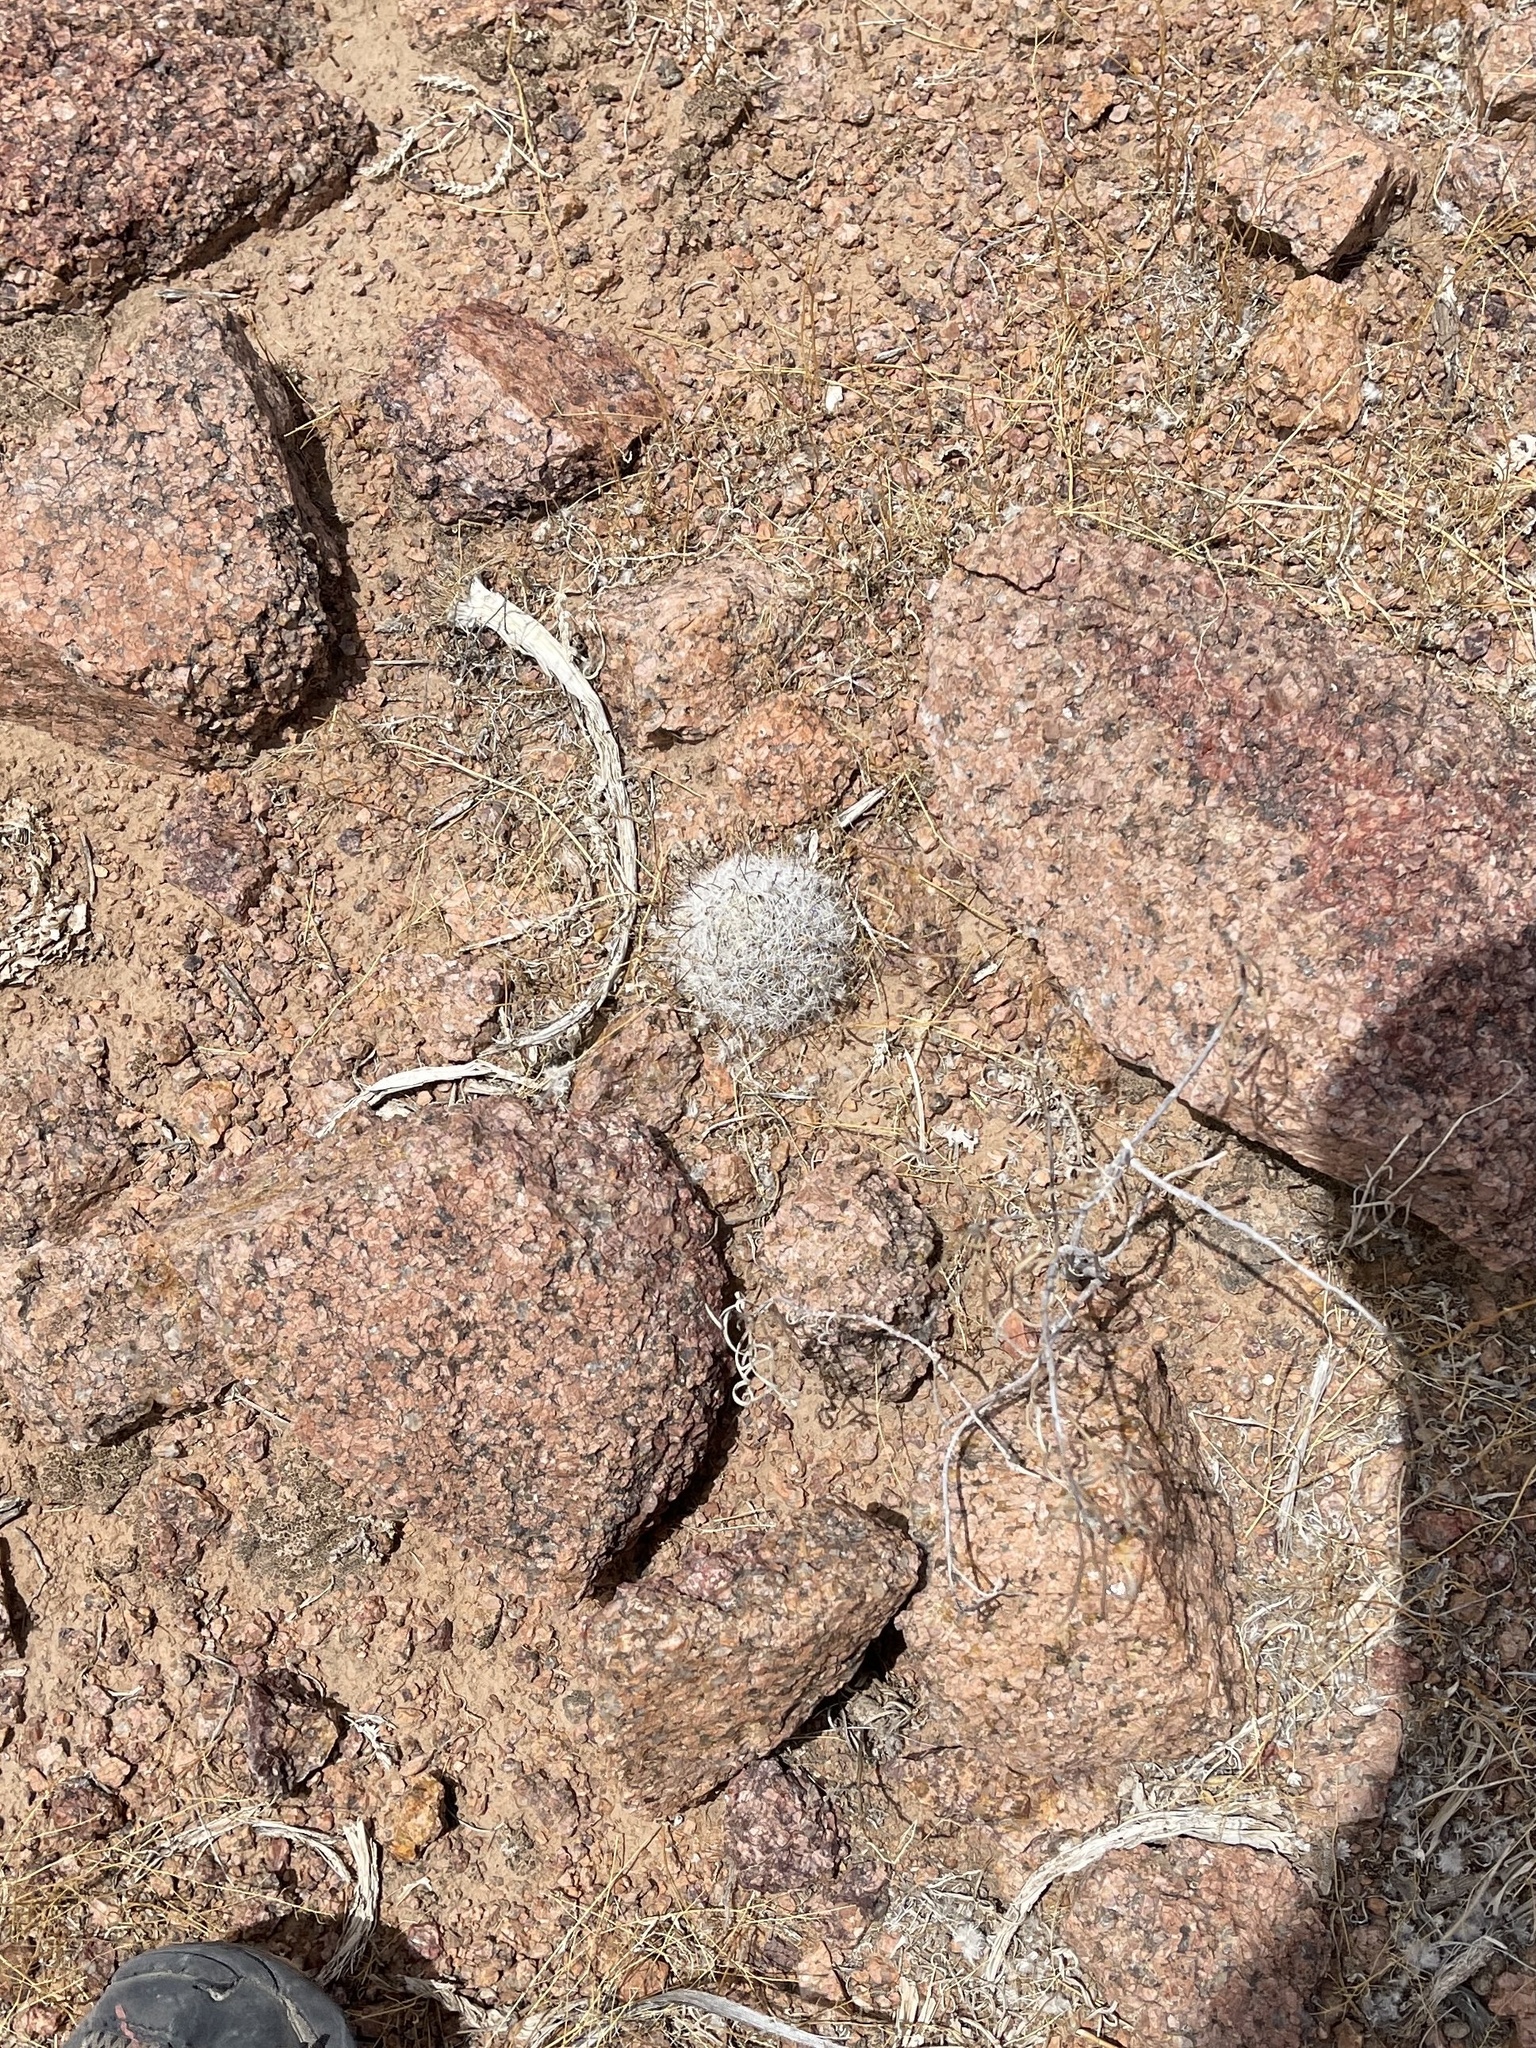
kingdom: Plantae
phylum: Tracheophyta
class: Magnoliopsida
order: Caryophyllales
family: Cactaceae
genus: Cochemiea
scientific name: Cochemiea grahamii
